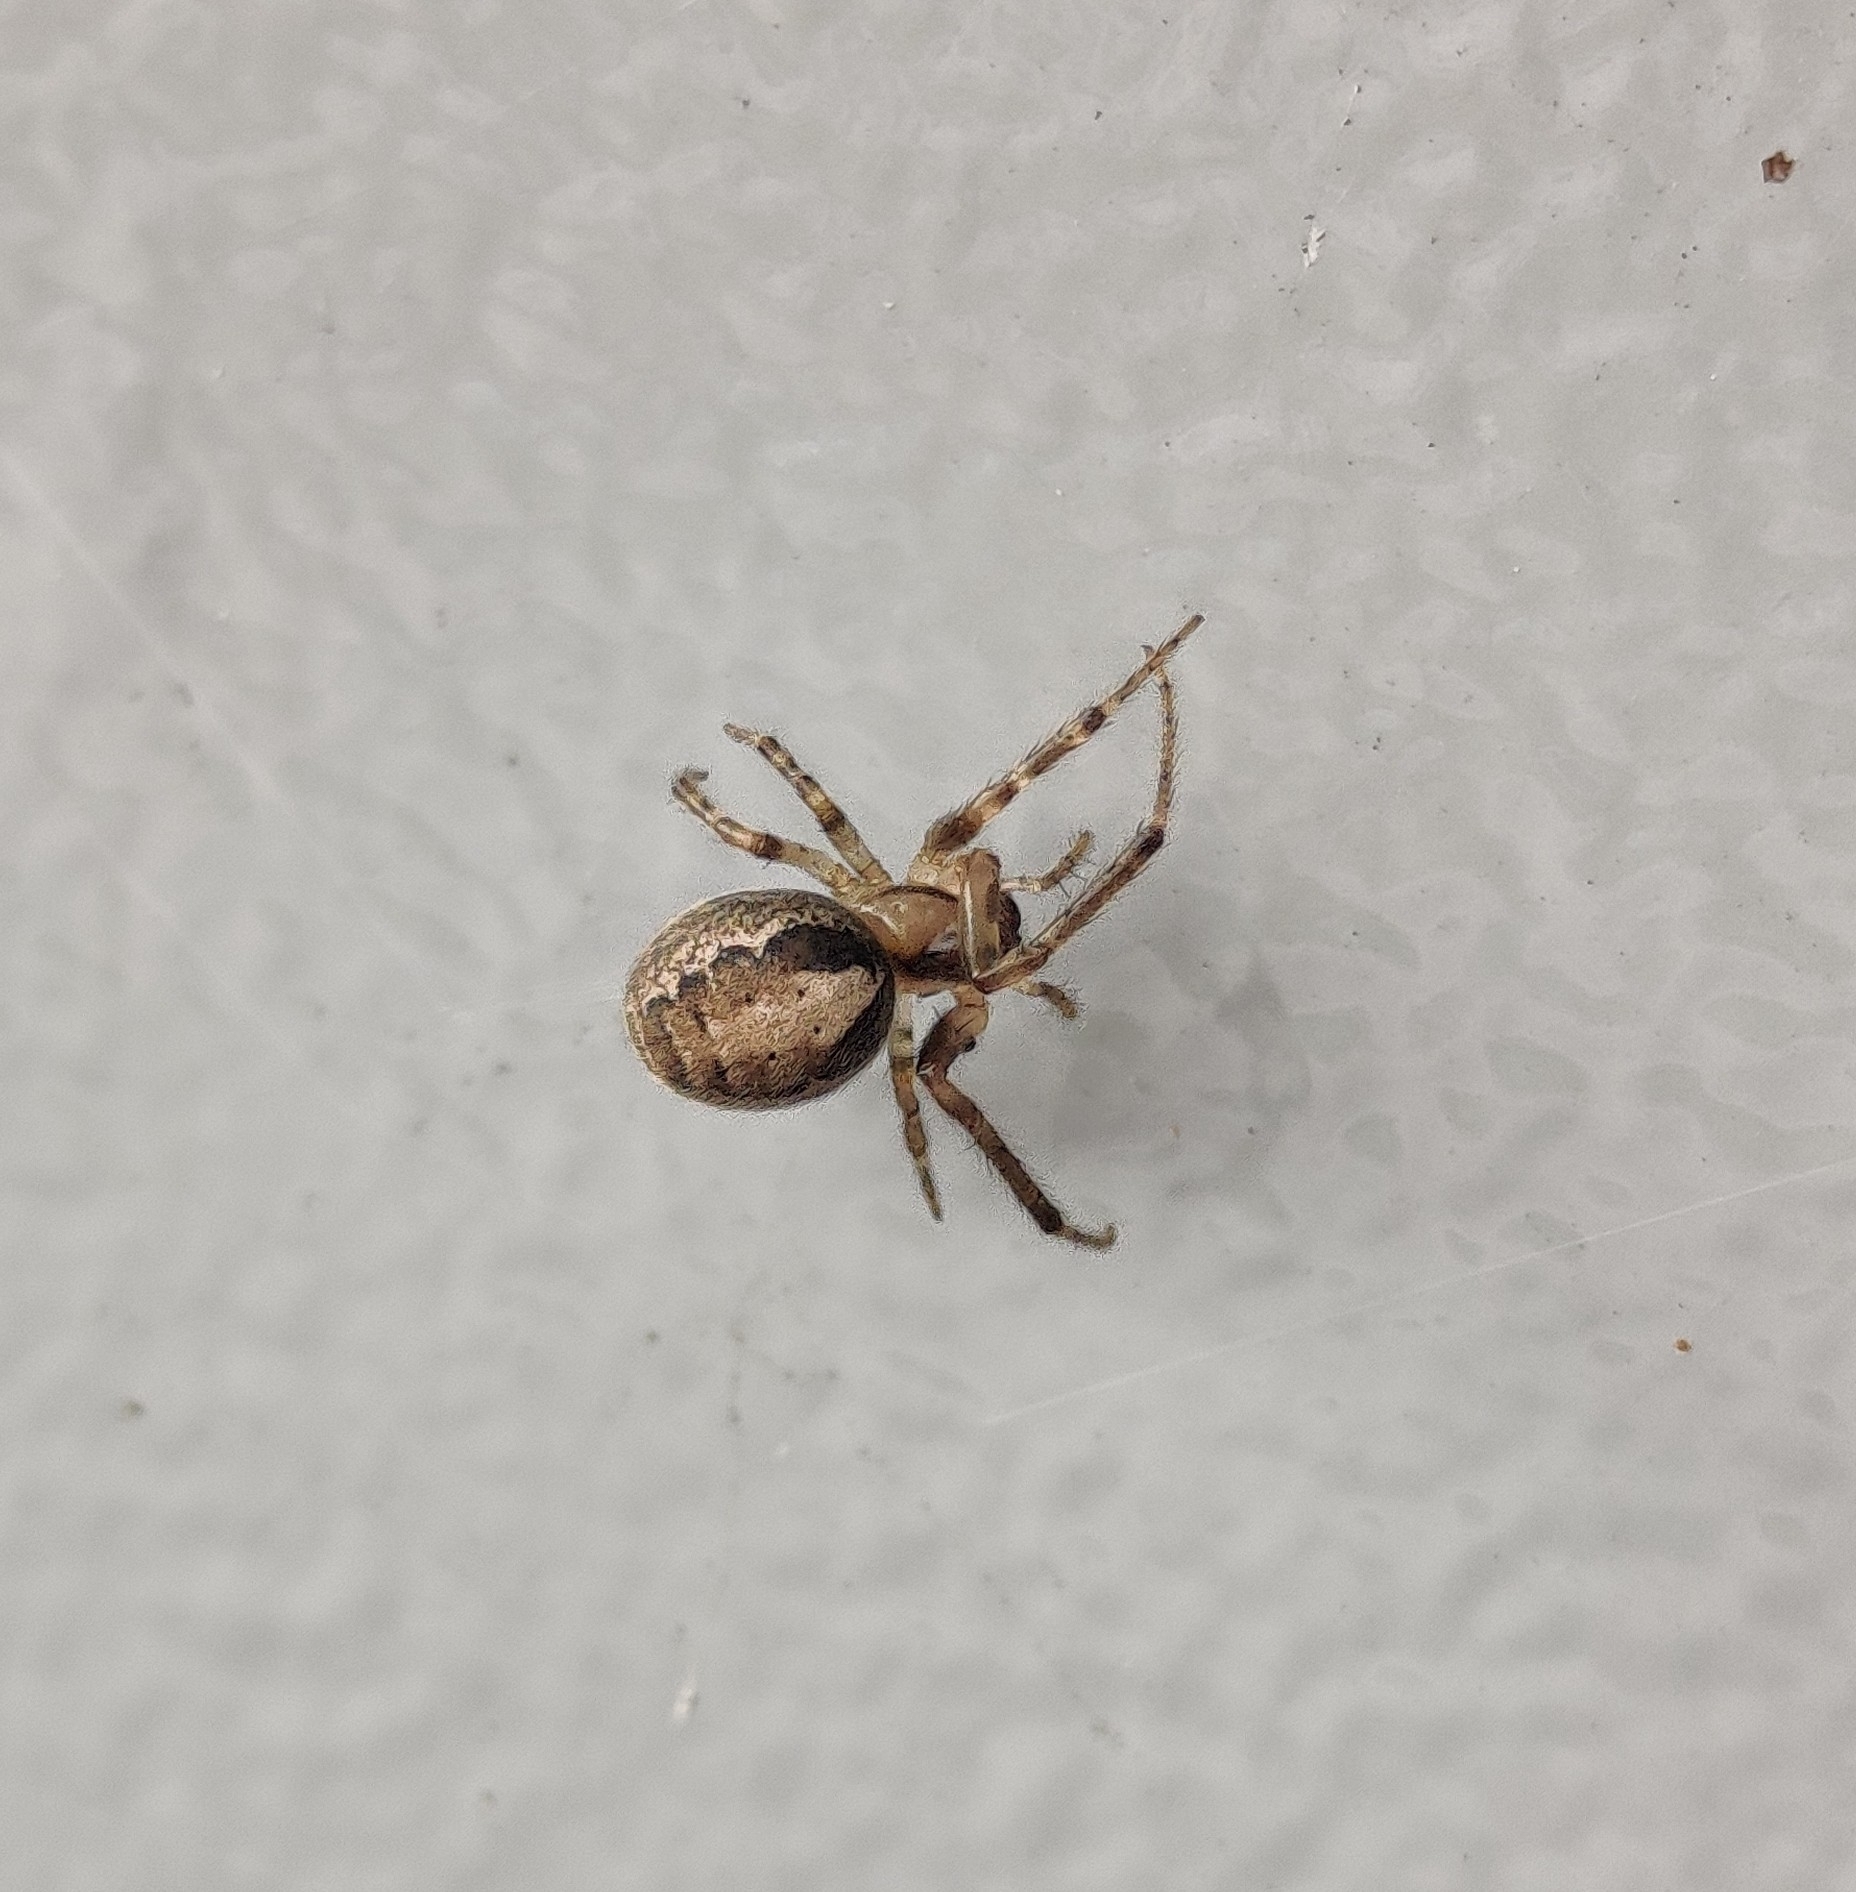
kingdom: Animalia
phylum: Arthropoda
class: Arachnida
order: Araneae
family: Araneidae
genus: Zygiella
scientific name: Zygiella x-notata
